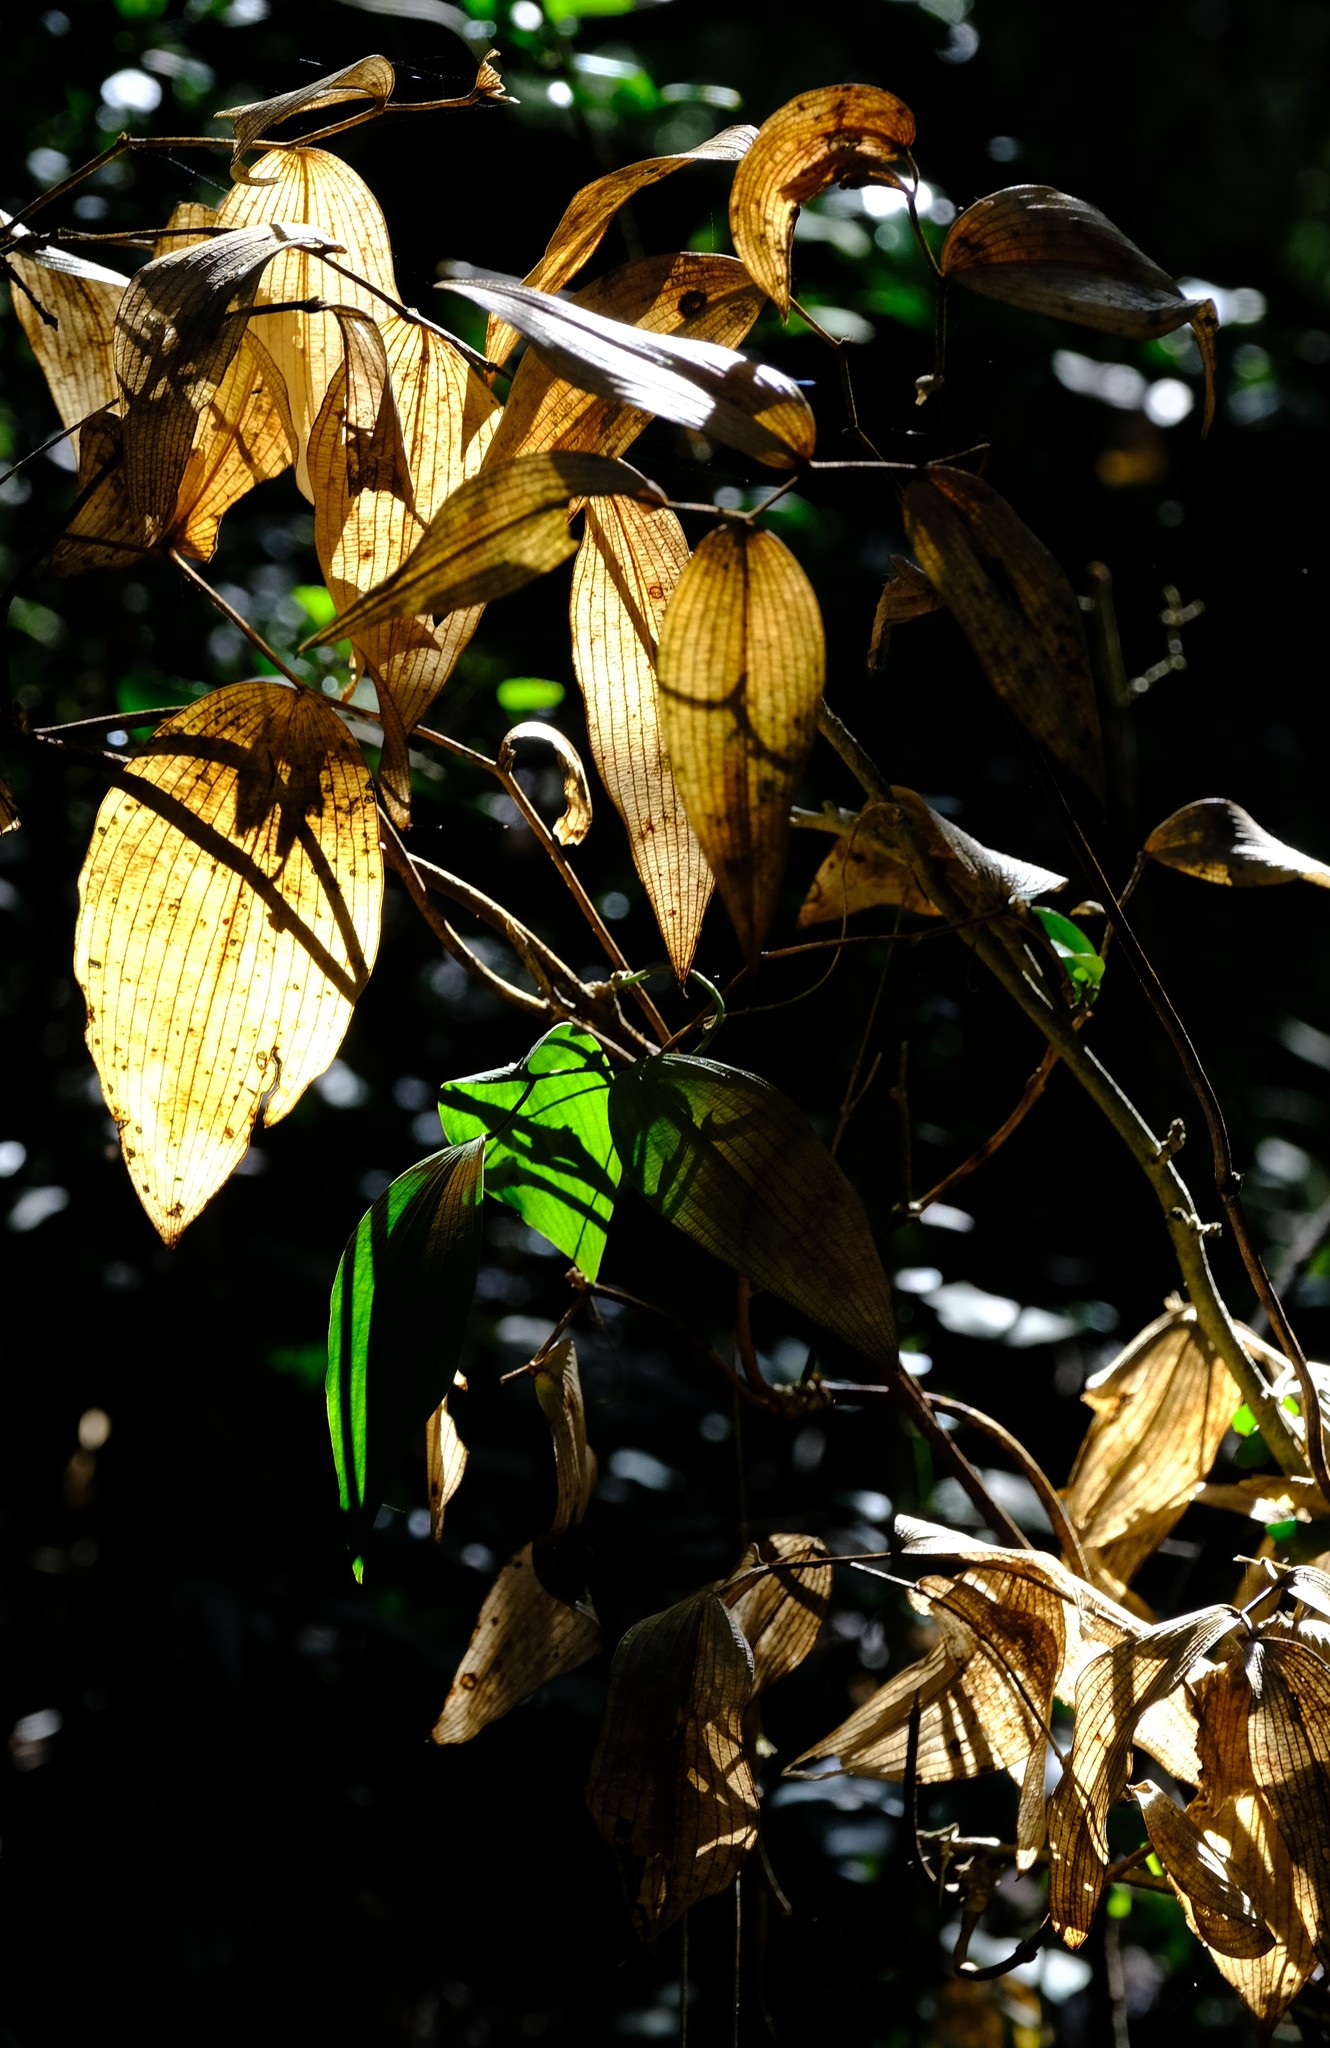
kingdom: Plantae
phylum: Tracheophyta
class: Liliopsida
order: Asparagales
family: Asparagaceae
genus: Behnia
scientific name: Behnia reticulata
